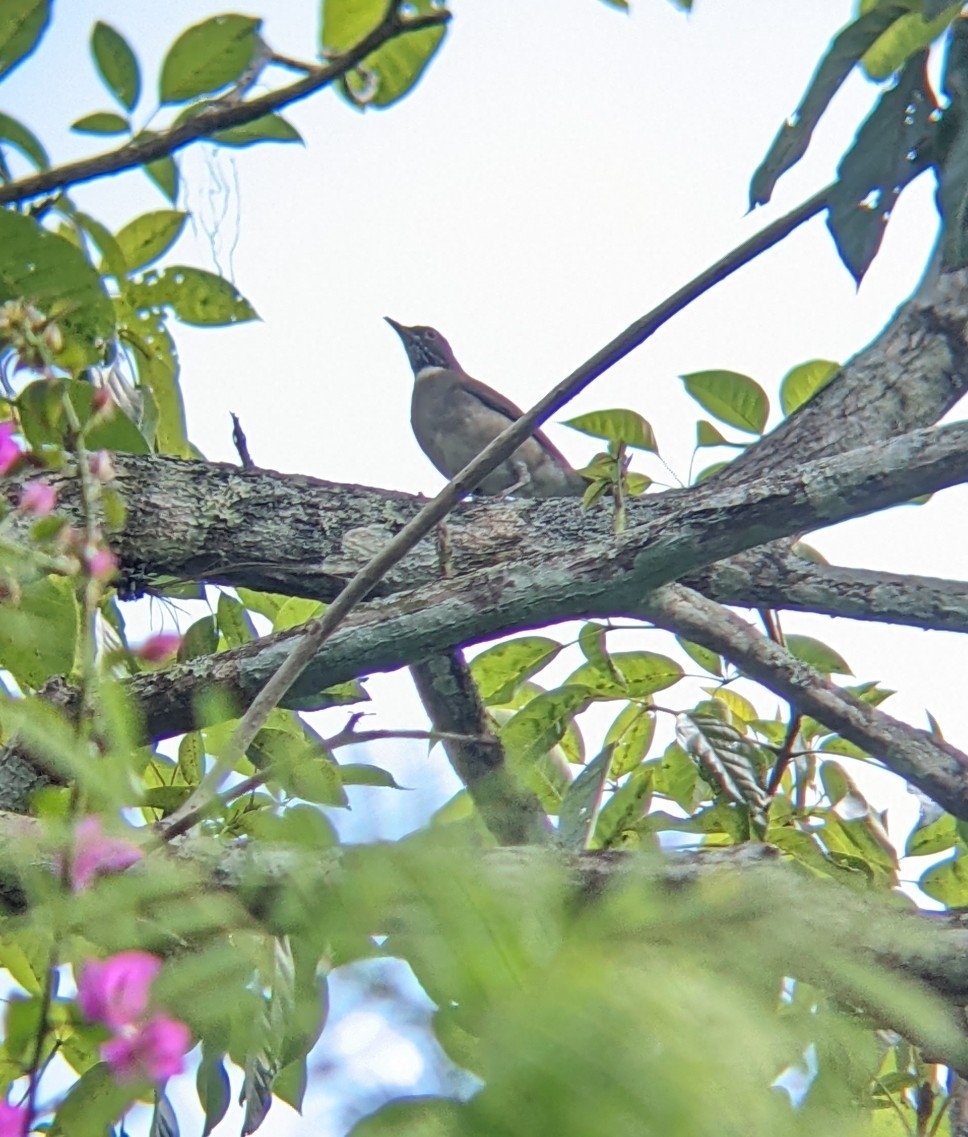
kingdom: Animalia
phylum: Chordata
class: Aves
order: Passeriformes
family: Turdidae
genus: Turdus
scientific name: Turdus assimilis
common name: White-throated thrush
